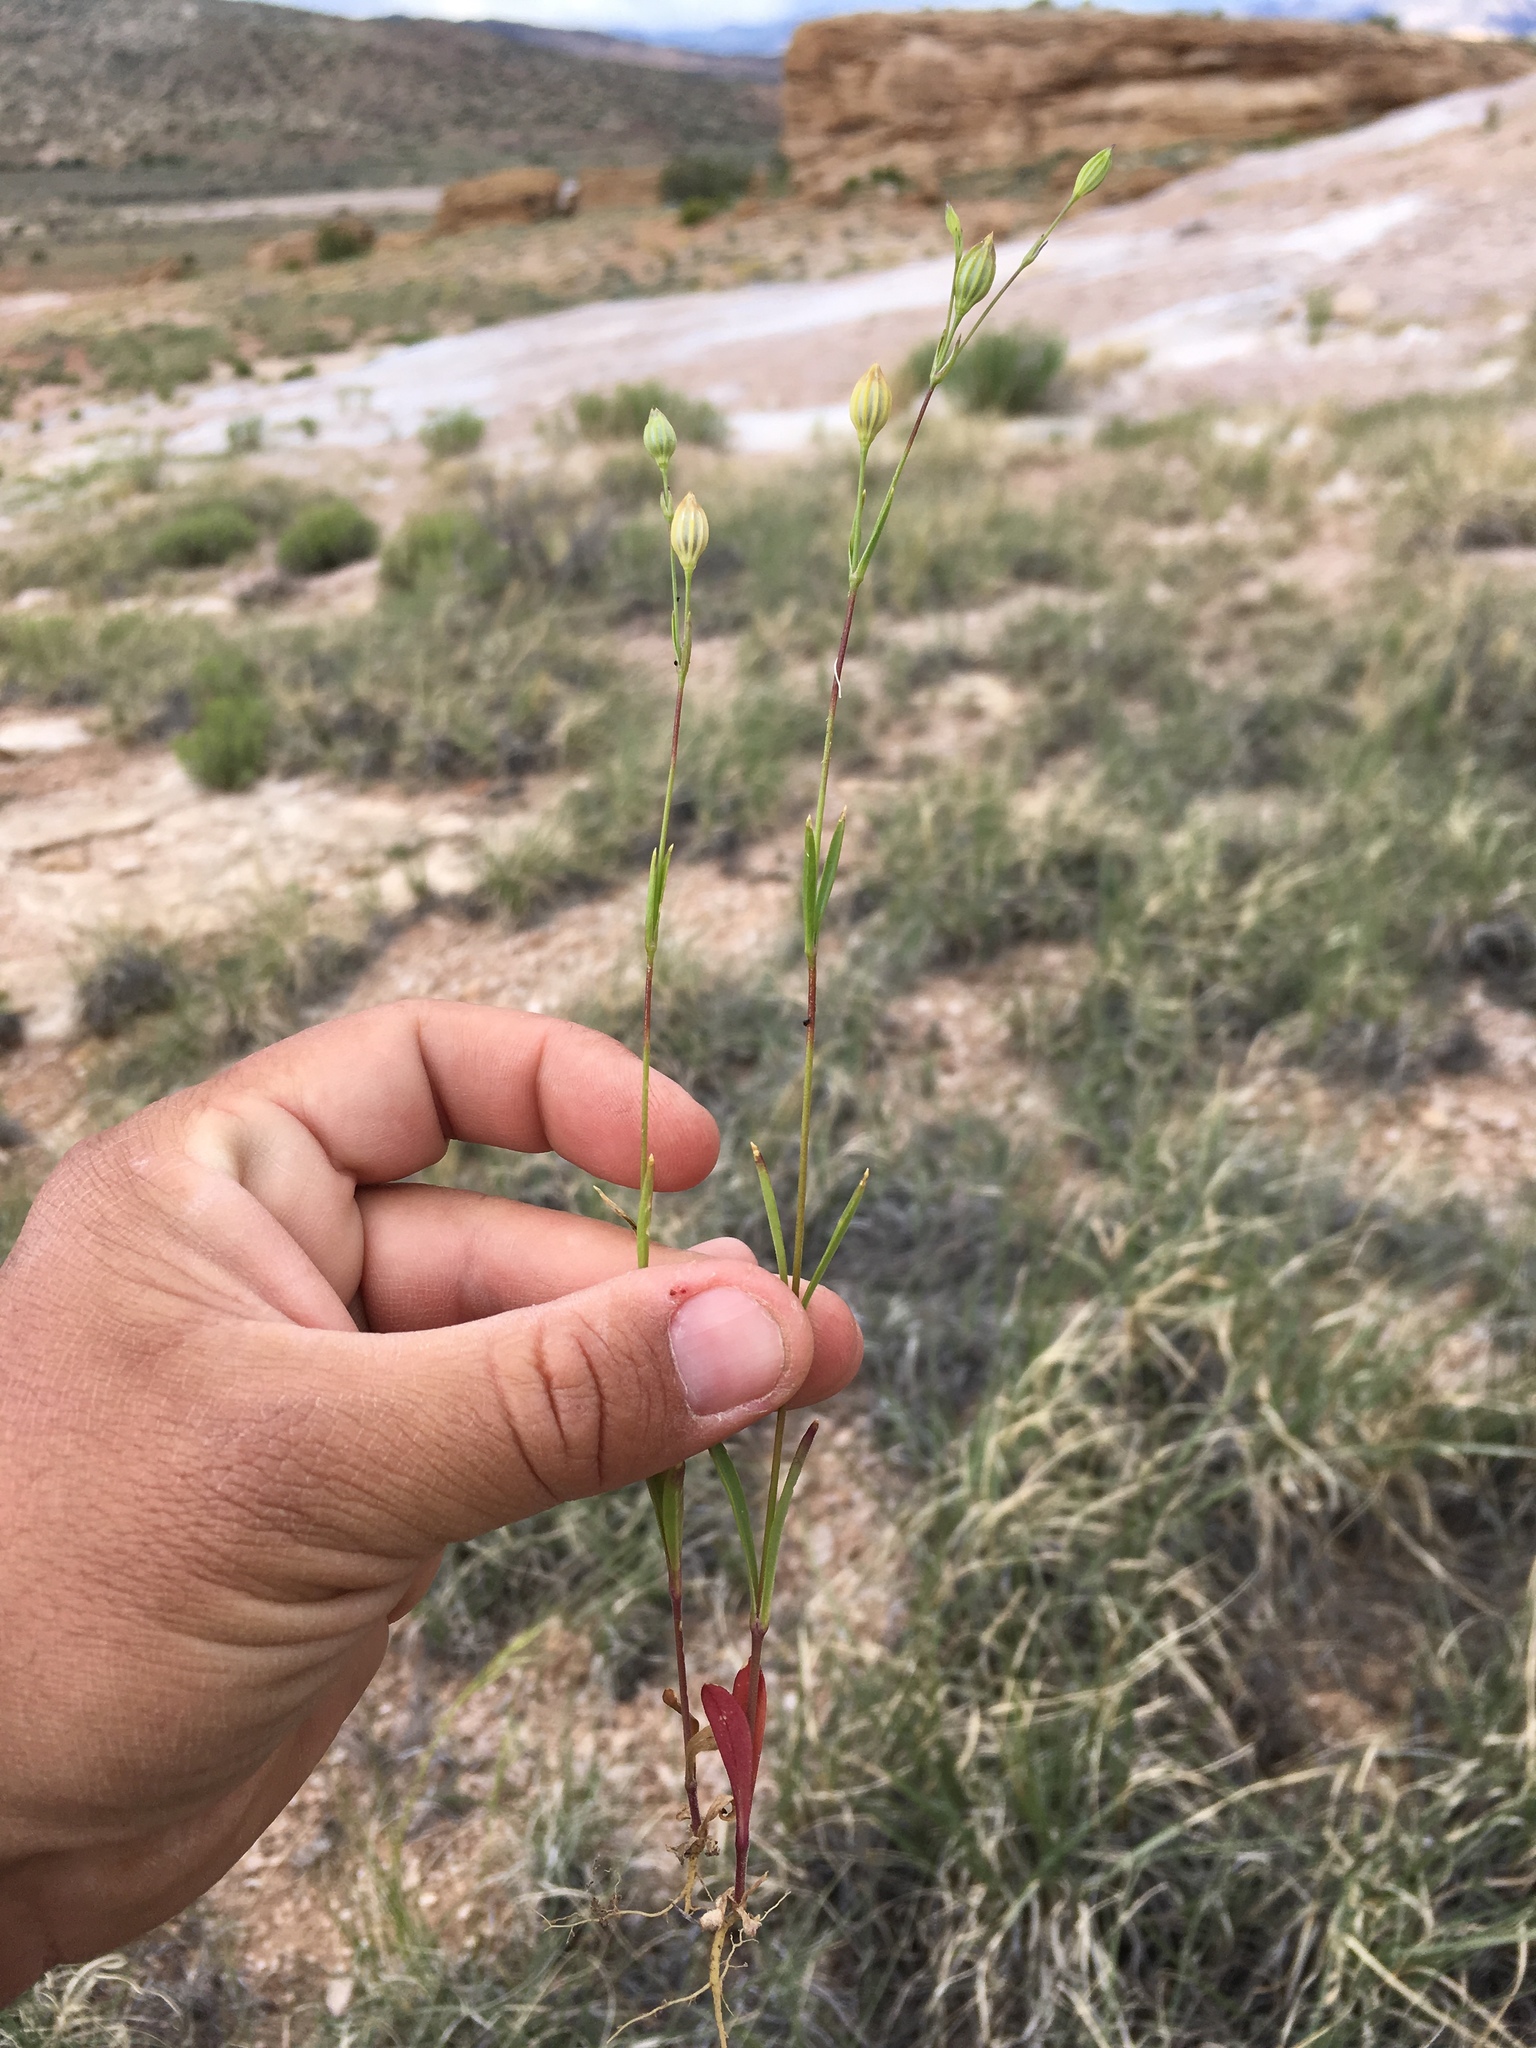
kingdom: Plantae
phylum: Tracheophyta
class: Magnoliopsida
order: Caryophyllales
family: Caryophyllaceae
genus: Silene
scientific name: Silene antirrhina
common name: Sleepy catchfly
